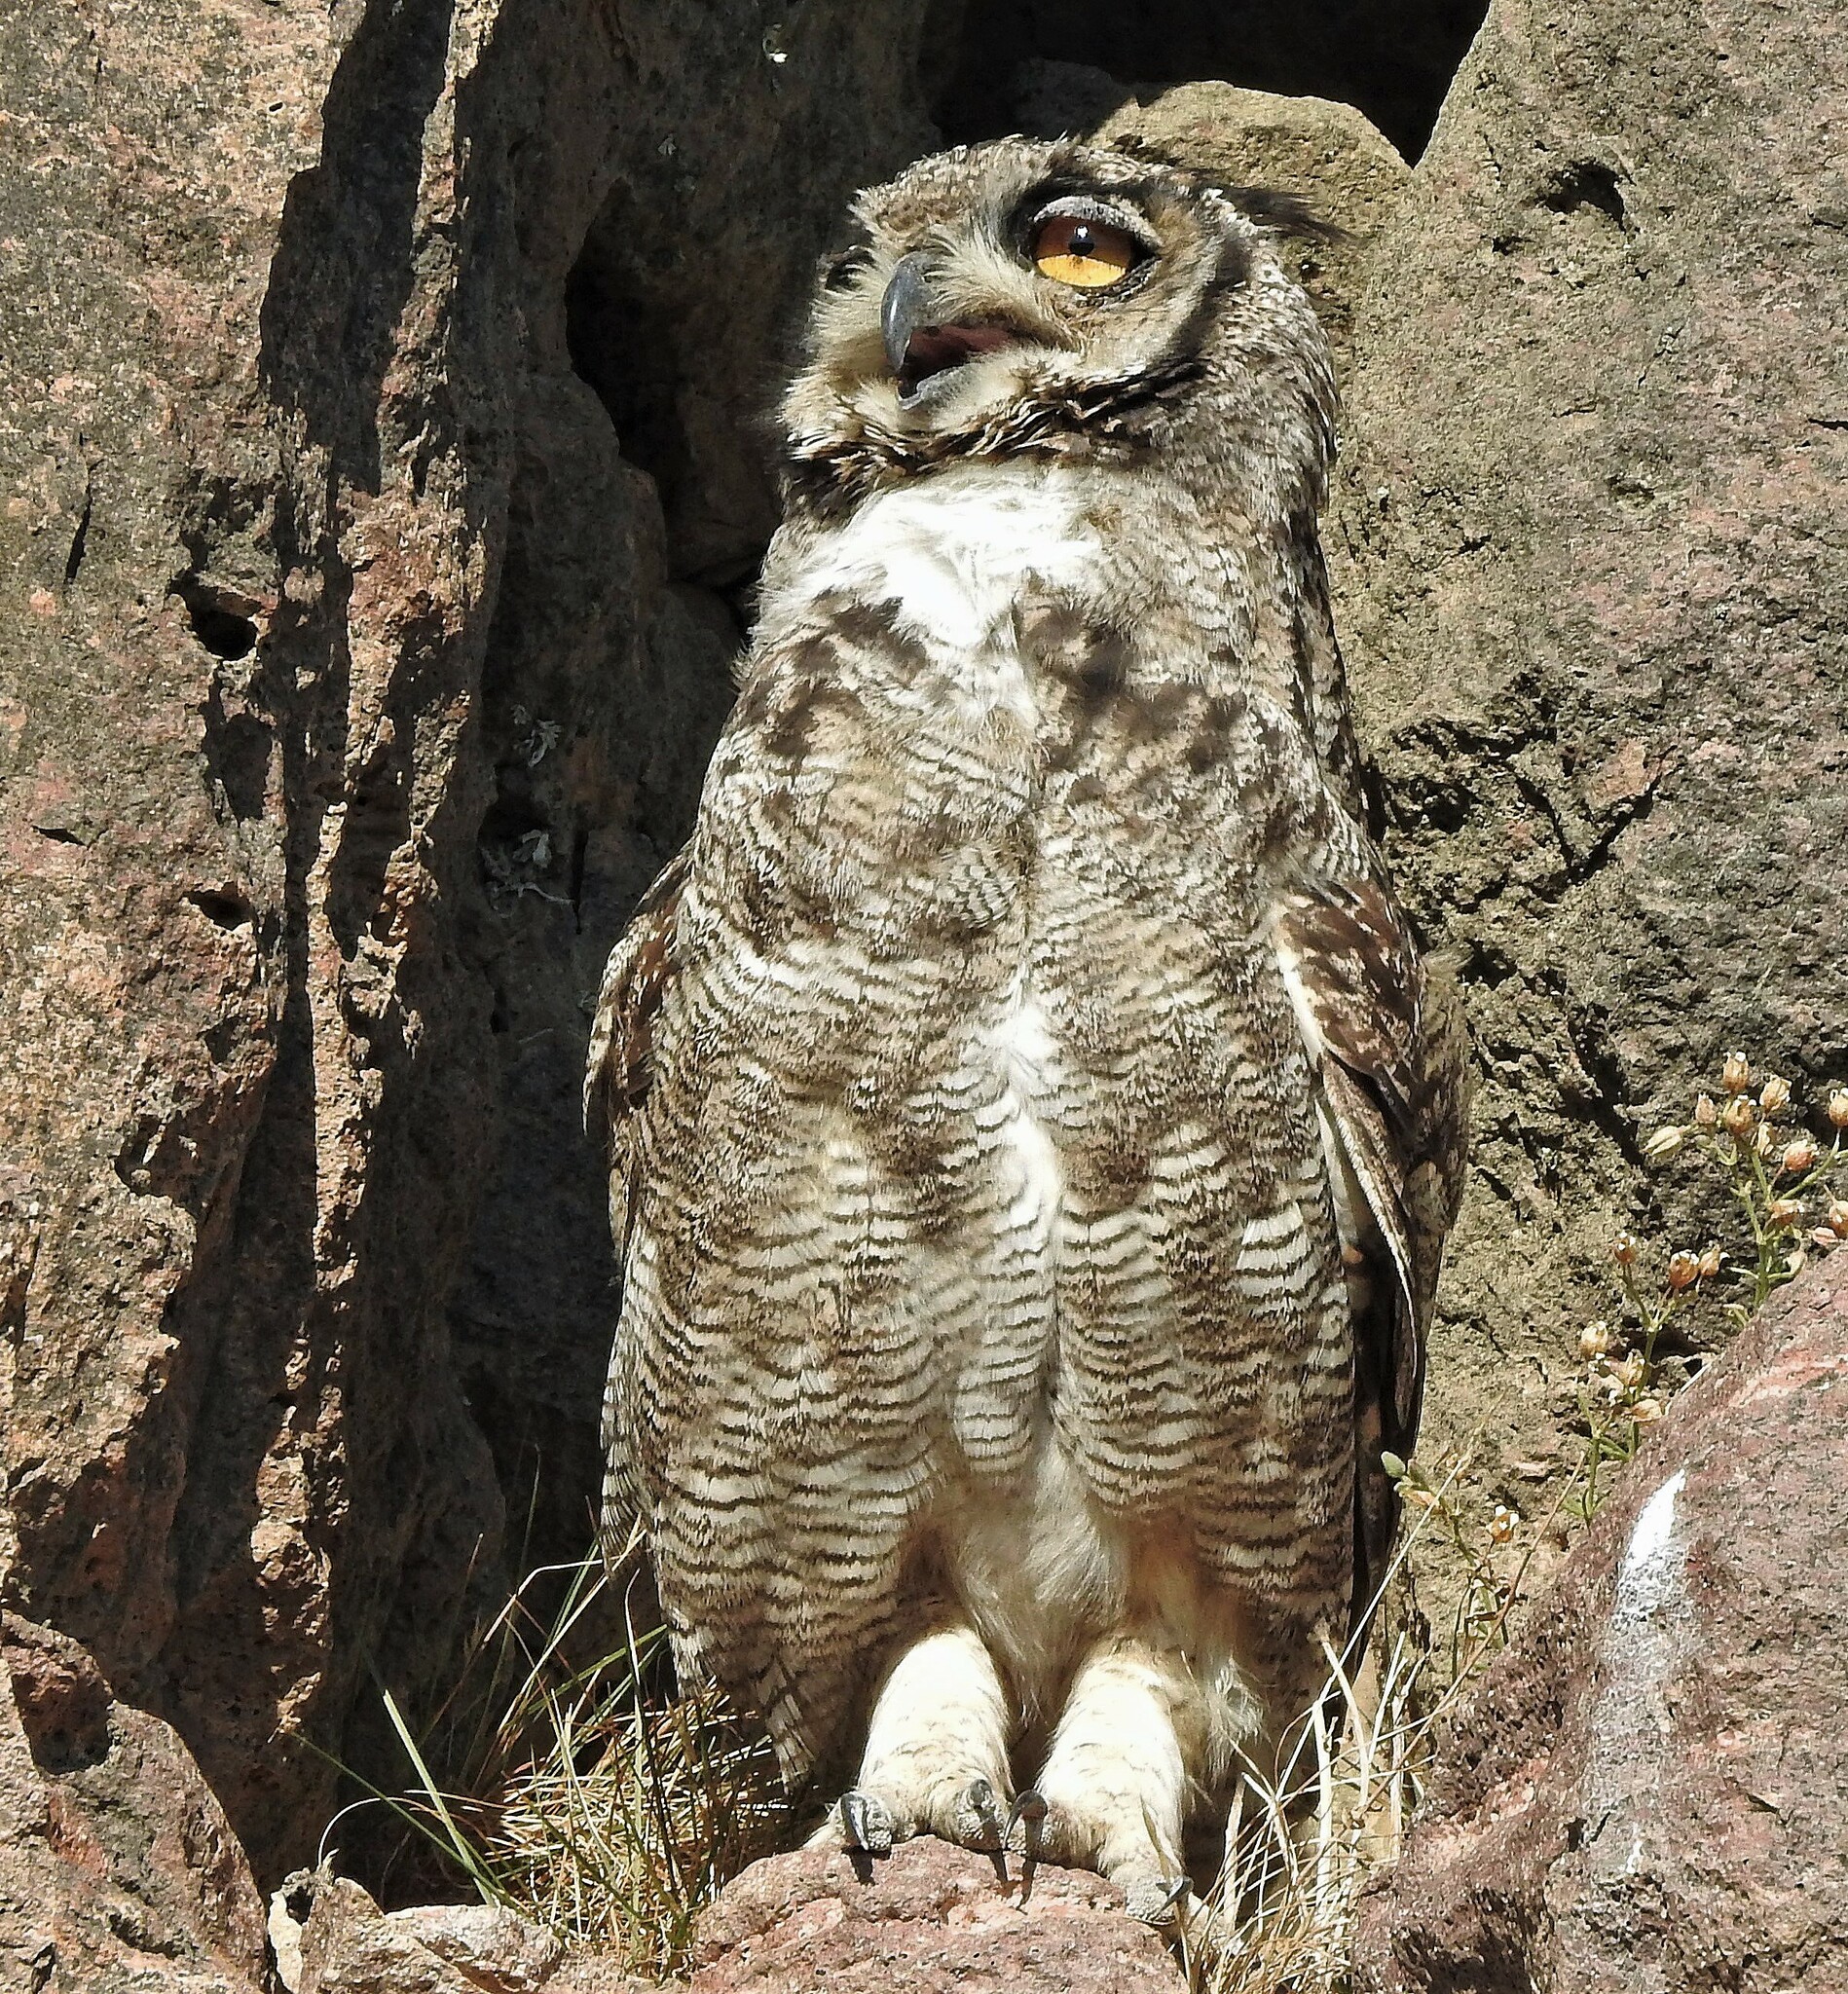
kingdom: Animalia
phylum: Chordata
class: Aves
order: Strigiformes
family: Strigidae
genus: Bubo
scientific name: Bubo magellanicus
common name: Lesser horned owl
